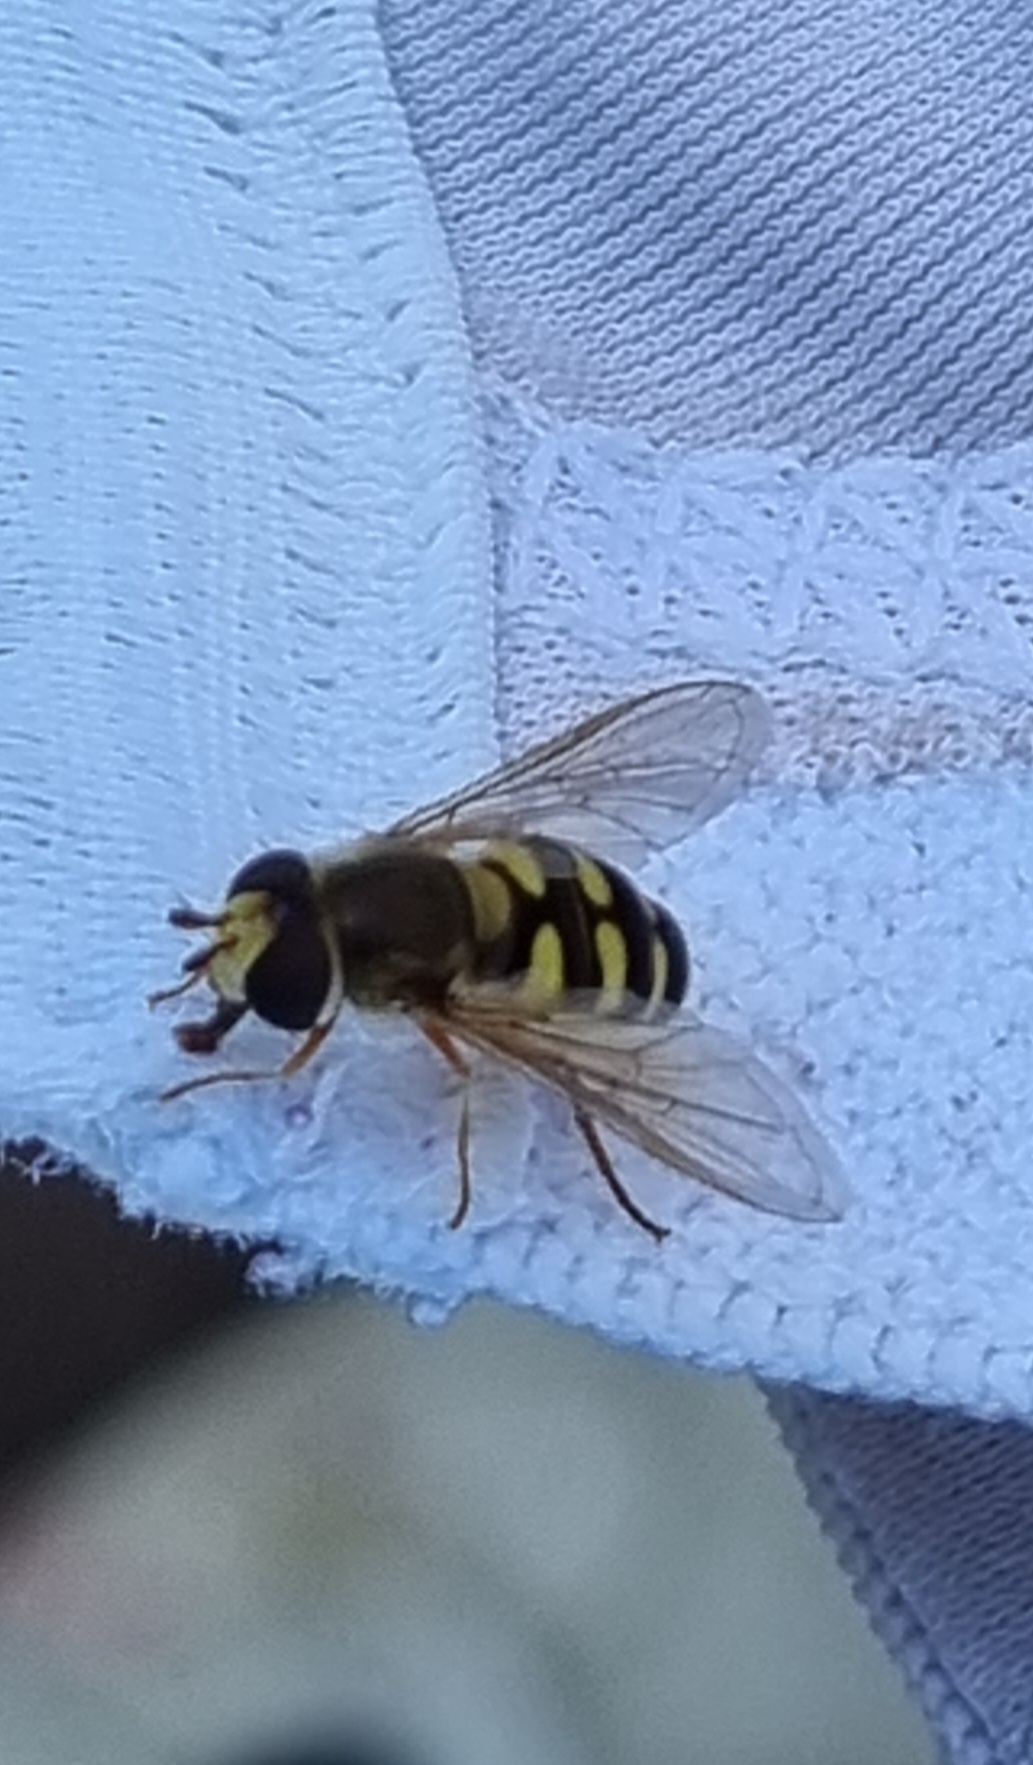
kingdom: Animalia
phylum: Arthropoda
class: Insecta
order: Diptera
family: Syrphidae
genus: Eupeodes
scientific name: Eupeodes corollae
